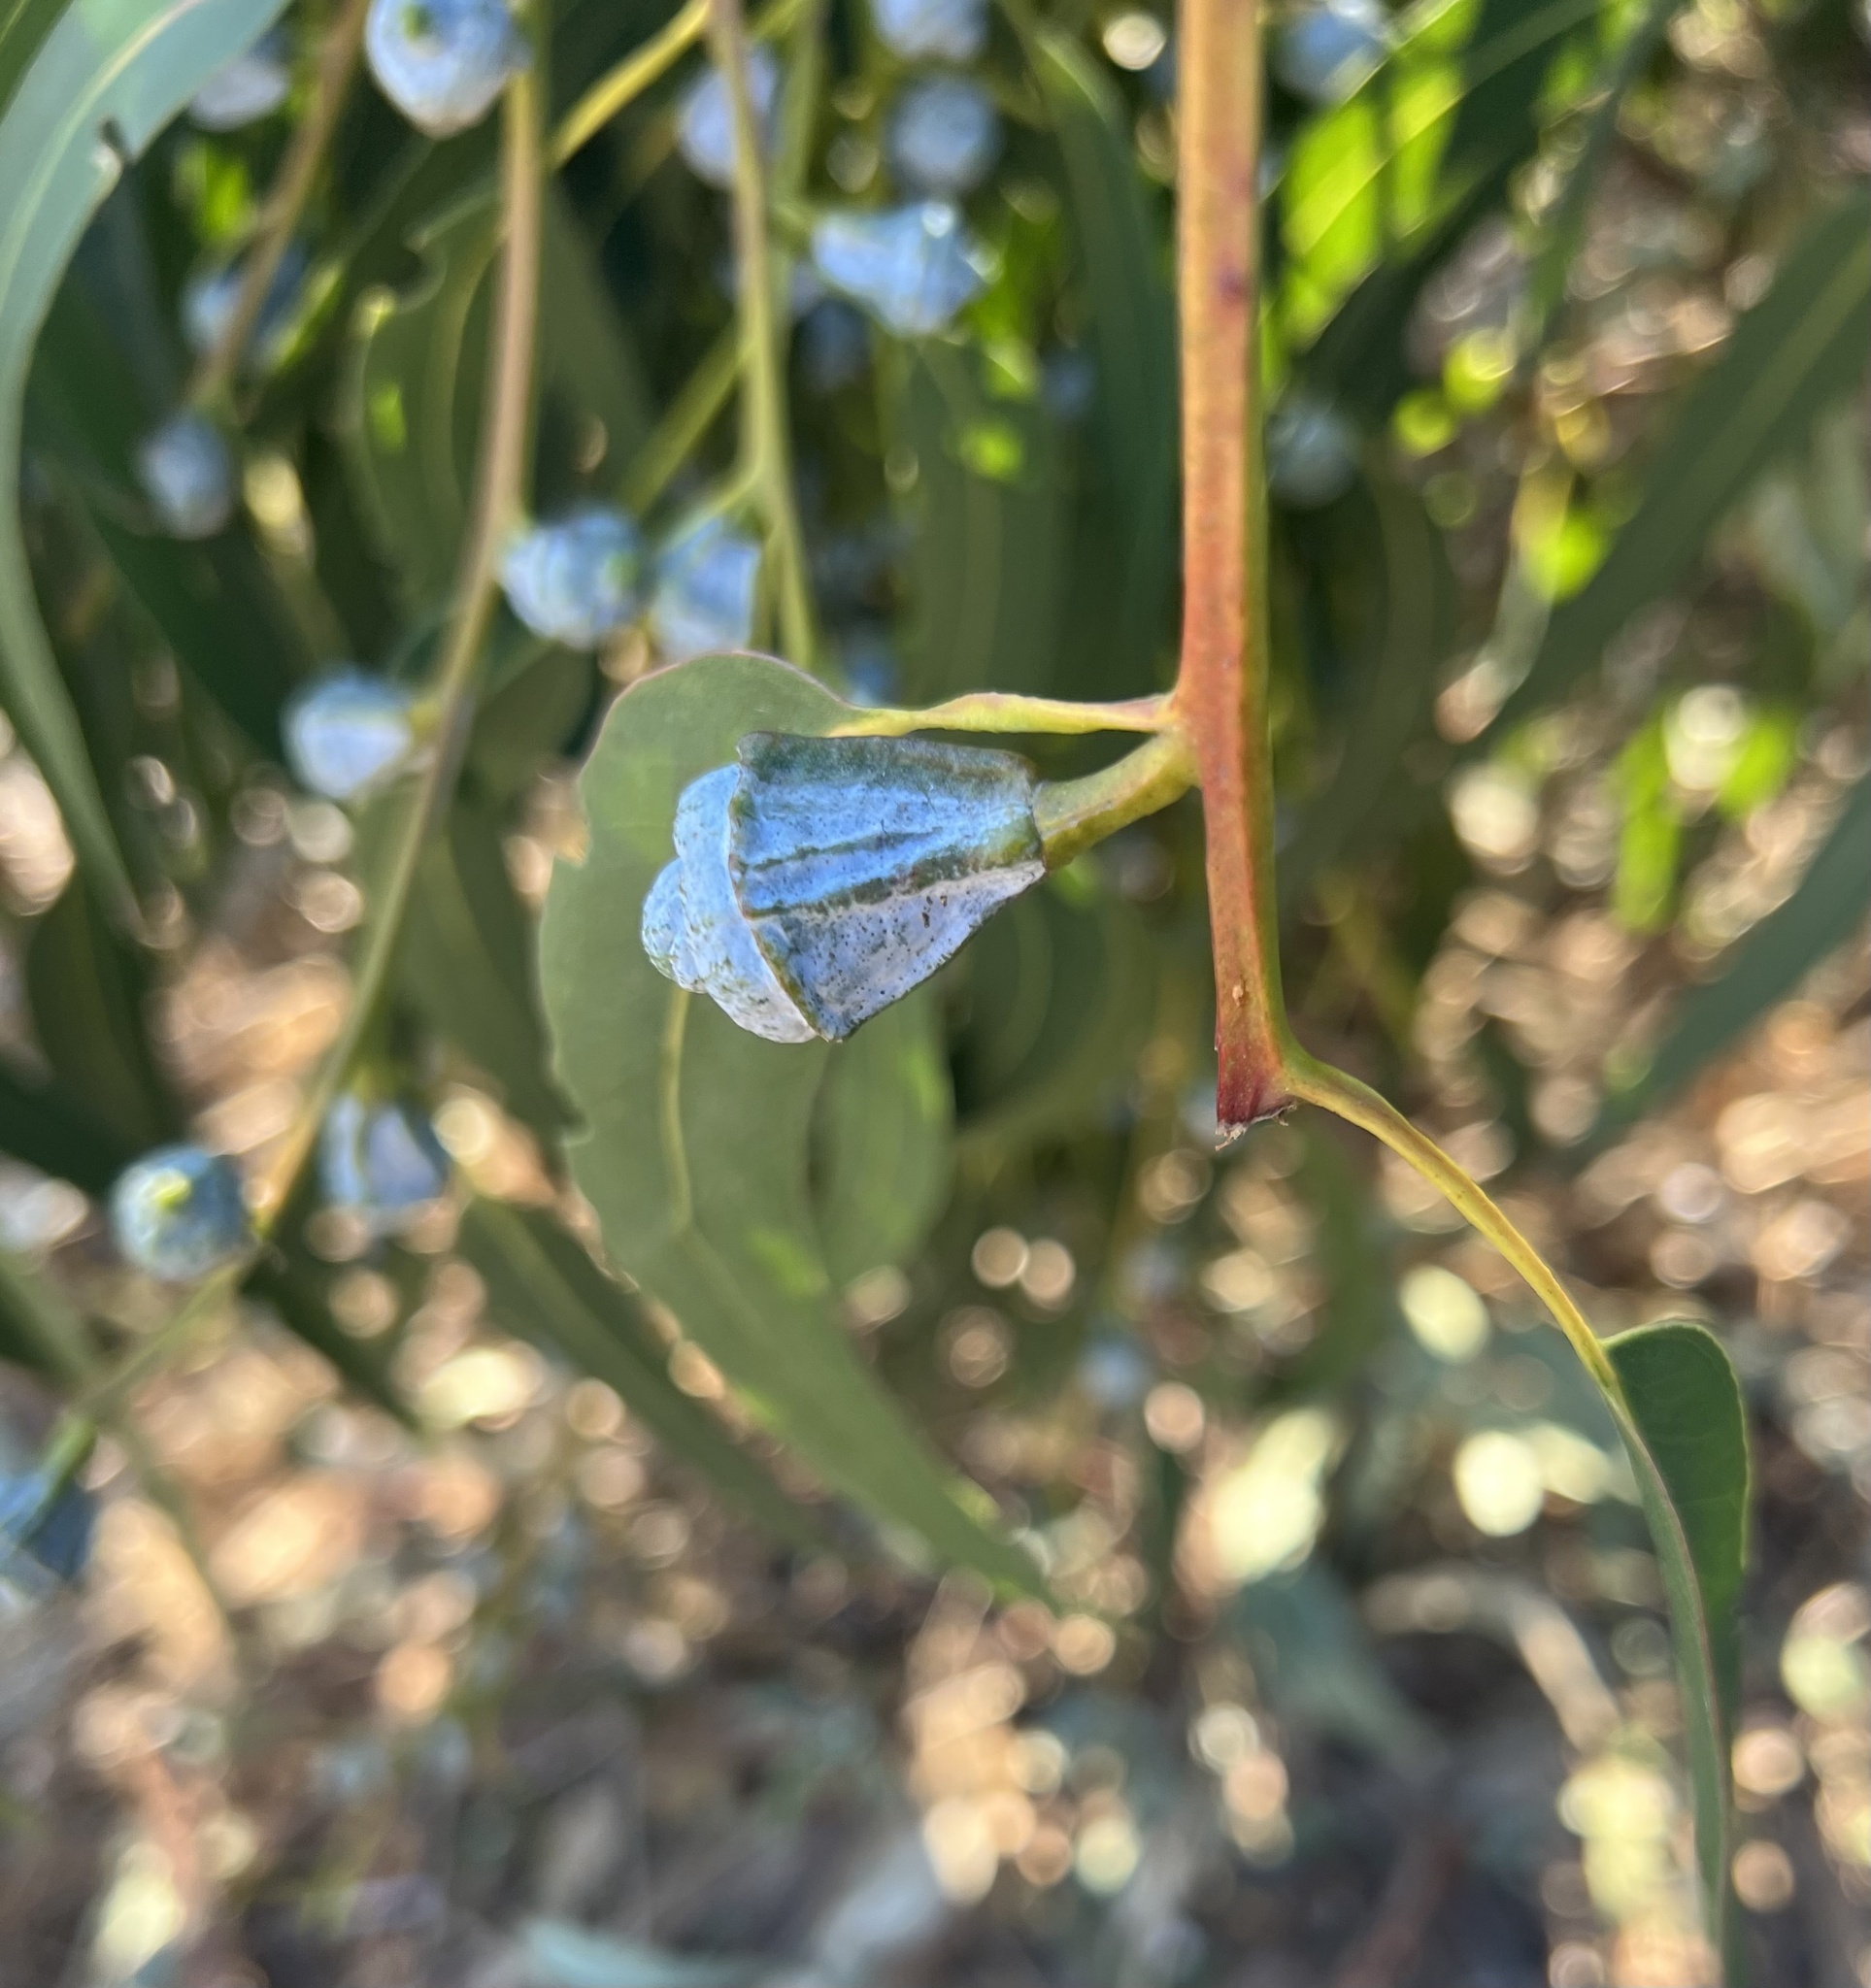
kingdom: Plantae
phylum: Tracheophyta
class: Magnoliopsida
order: Myrtales
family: Myrtaceae
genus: Eucalyptus
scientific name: Eucalyptus globulus
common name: Southern blue-gum
